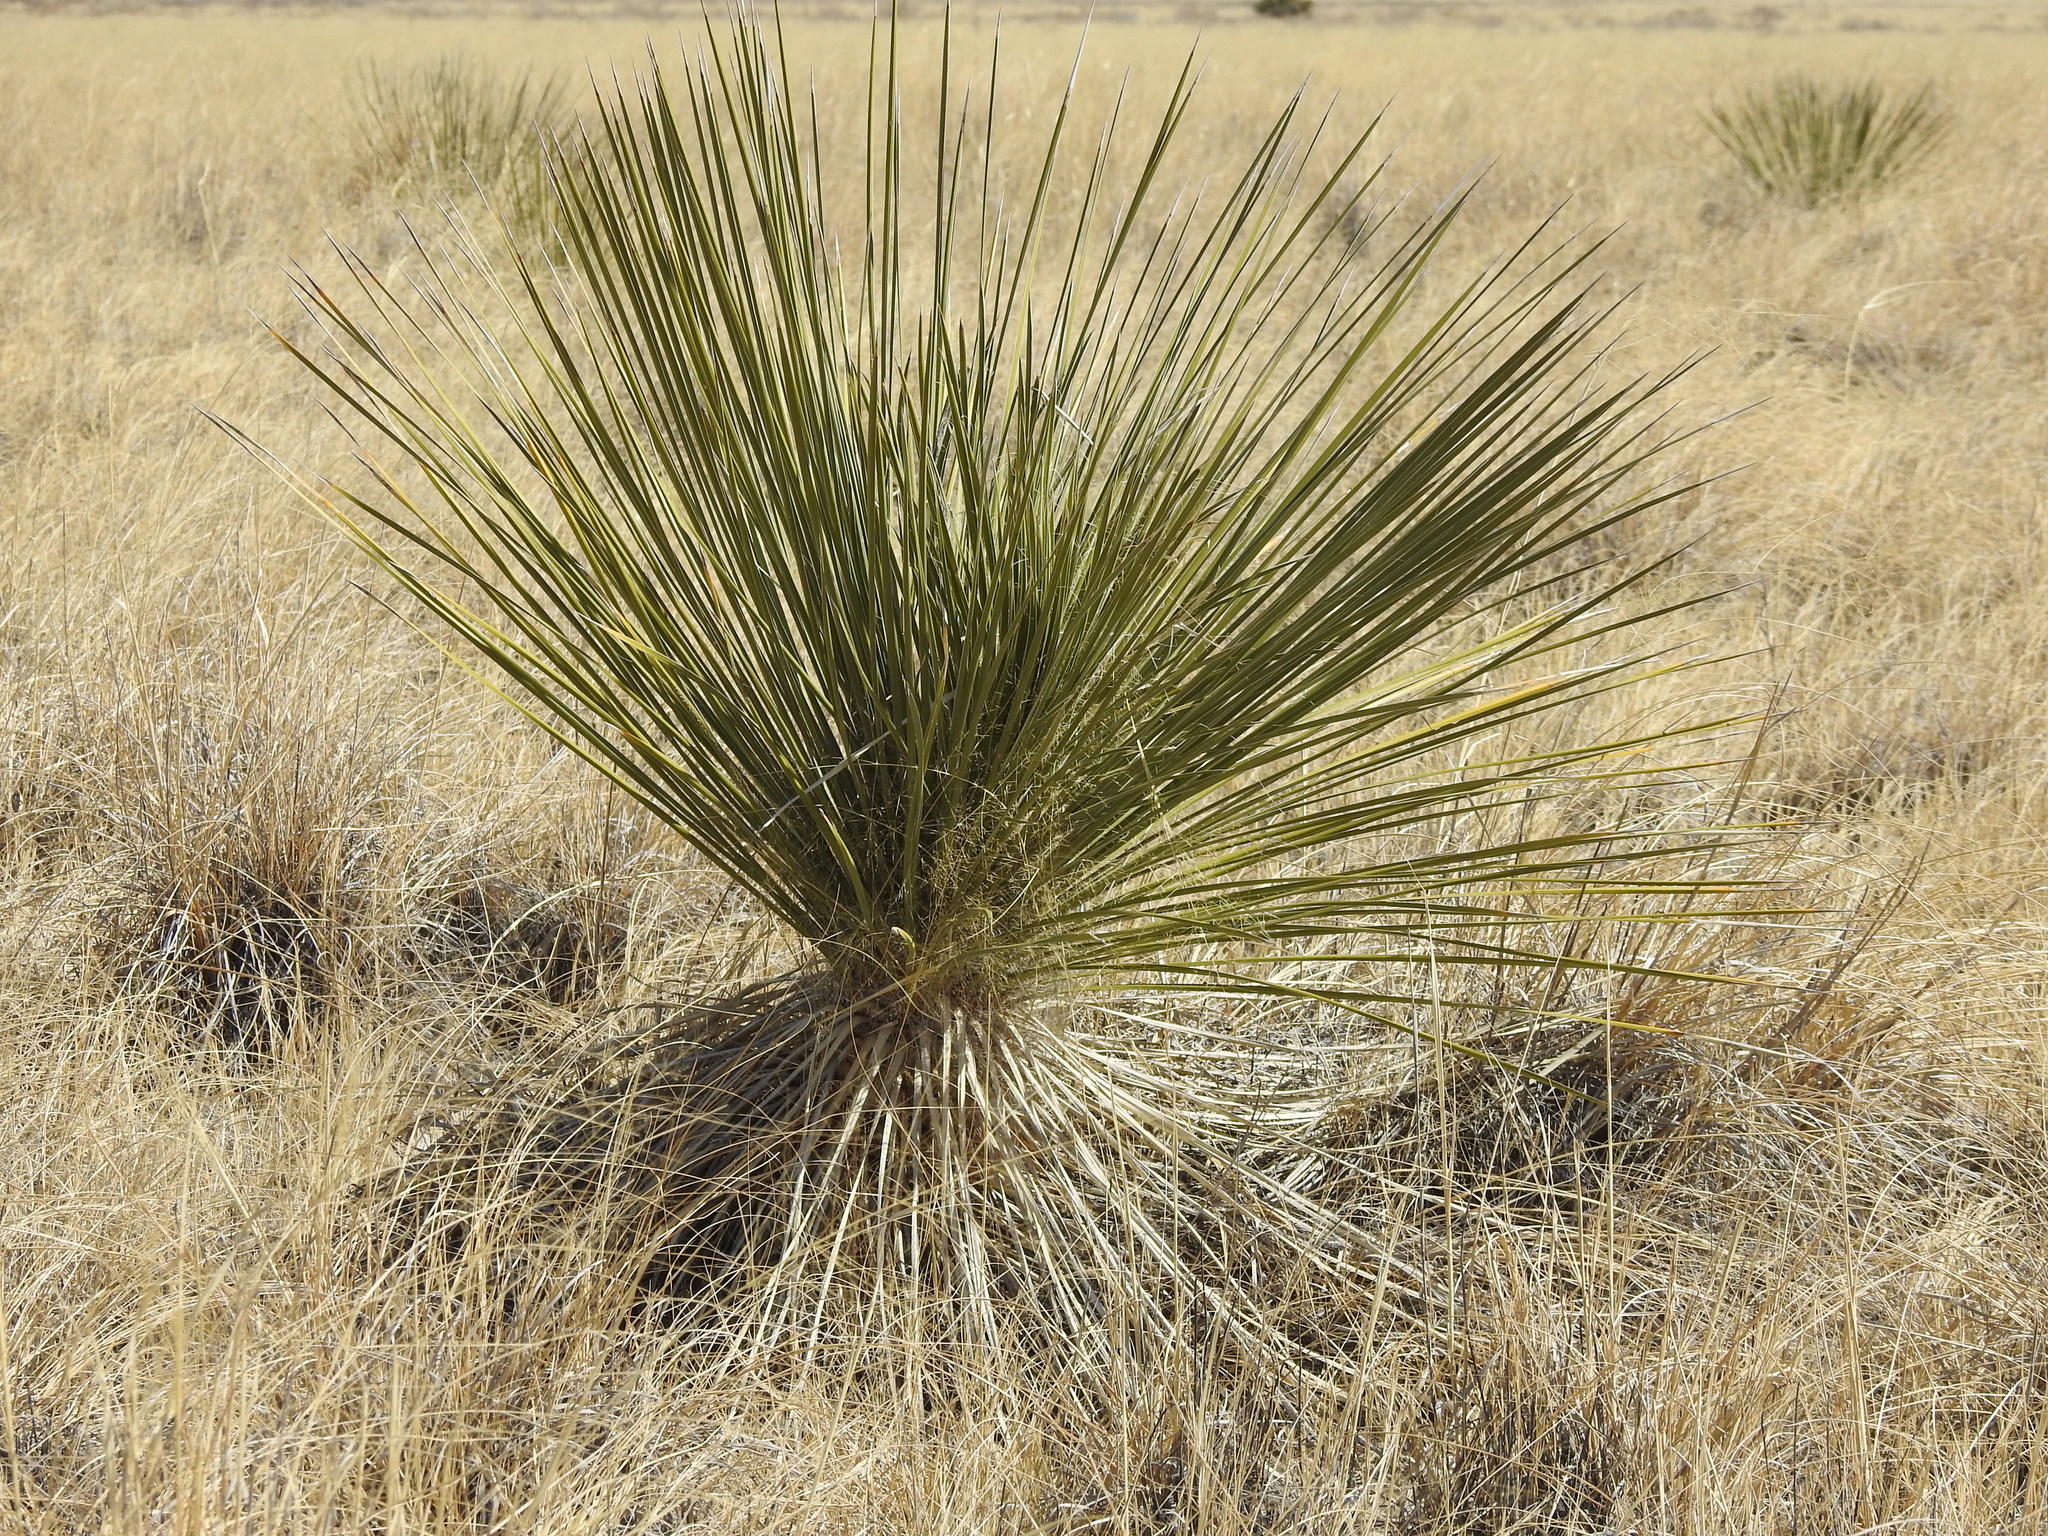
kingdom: Plantae
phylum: Tracheophyta
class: Liliopsida
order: Asparagales
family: Asparagaceae
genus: Yucca
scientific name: Yucca elata
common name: Palmella
